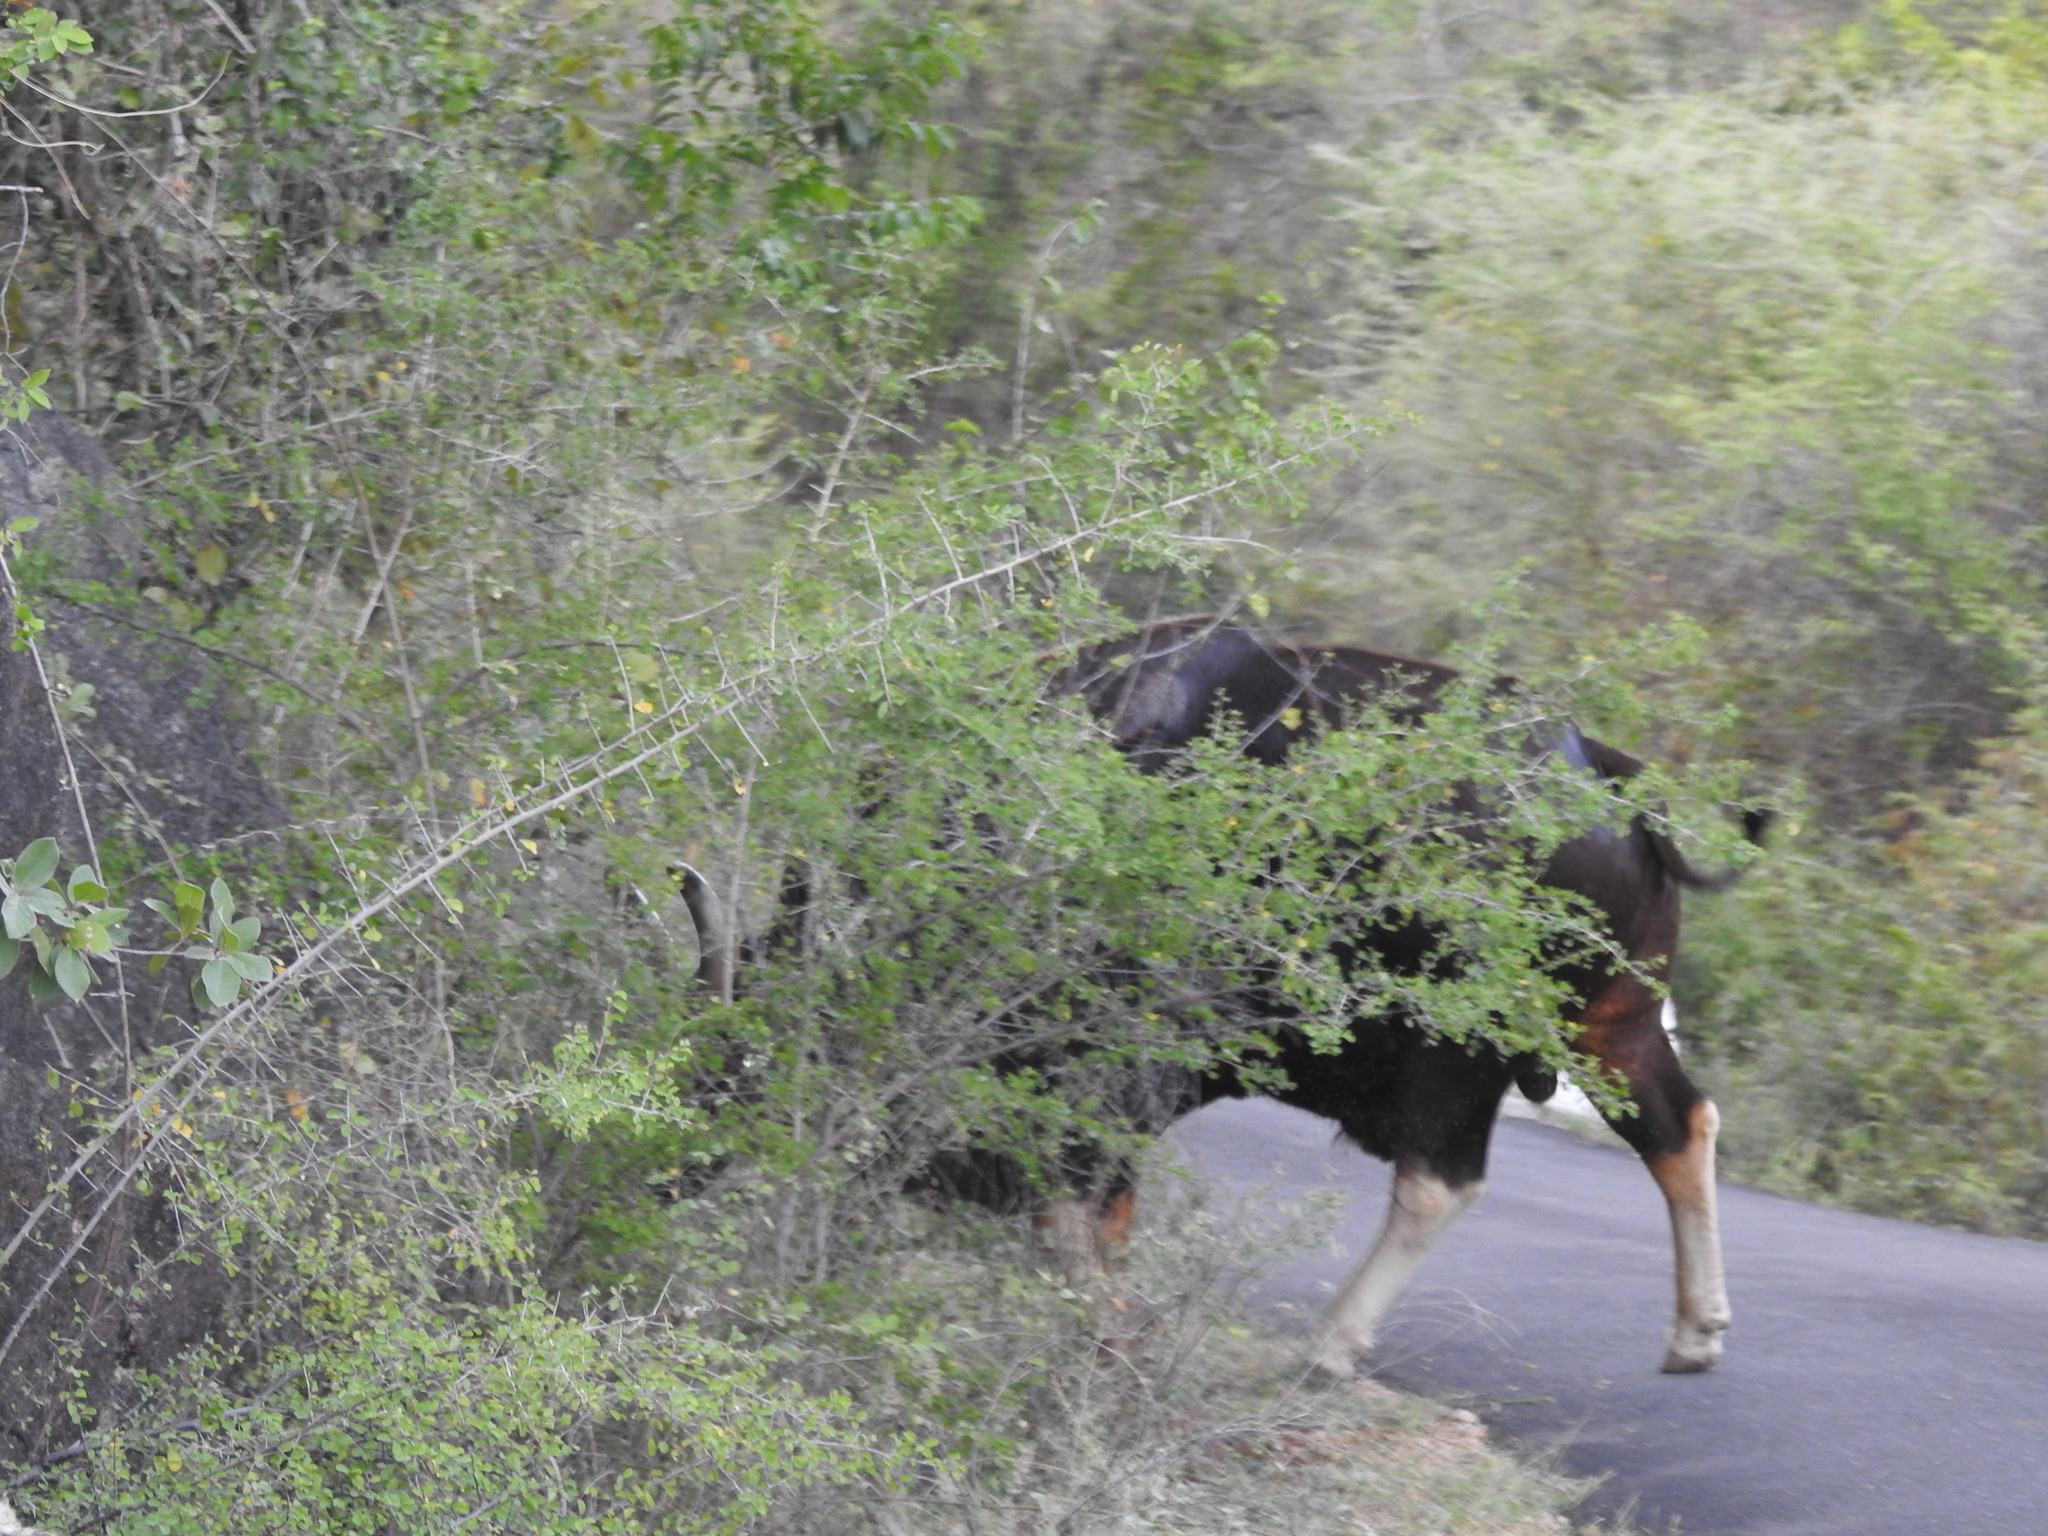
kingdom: Animalia
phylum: Chordata
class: Mammalia
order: Artiodactyla
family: Bovidae
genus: Bos
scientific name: Bos frontalis
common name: Gaur
